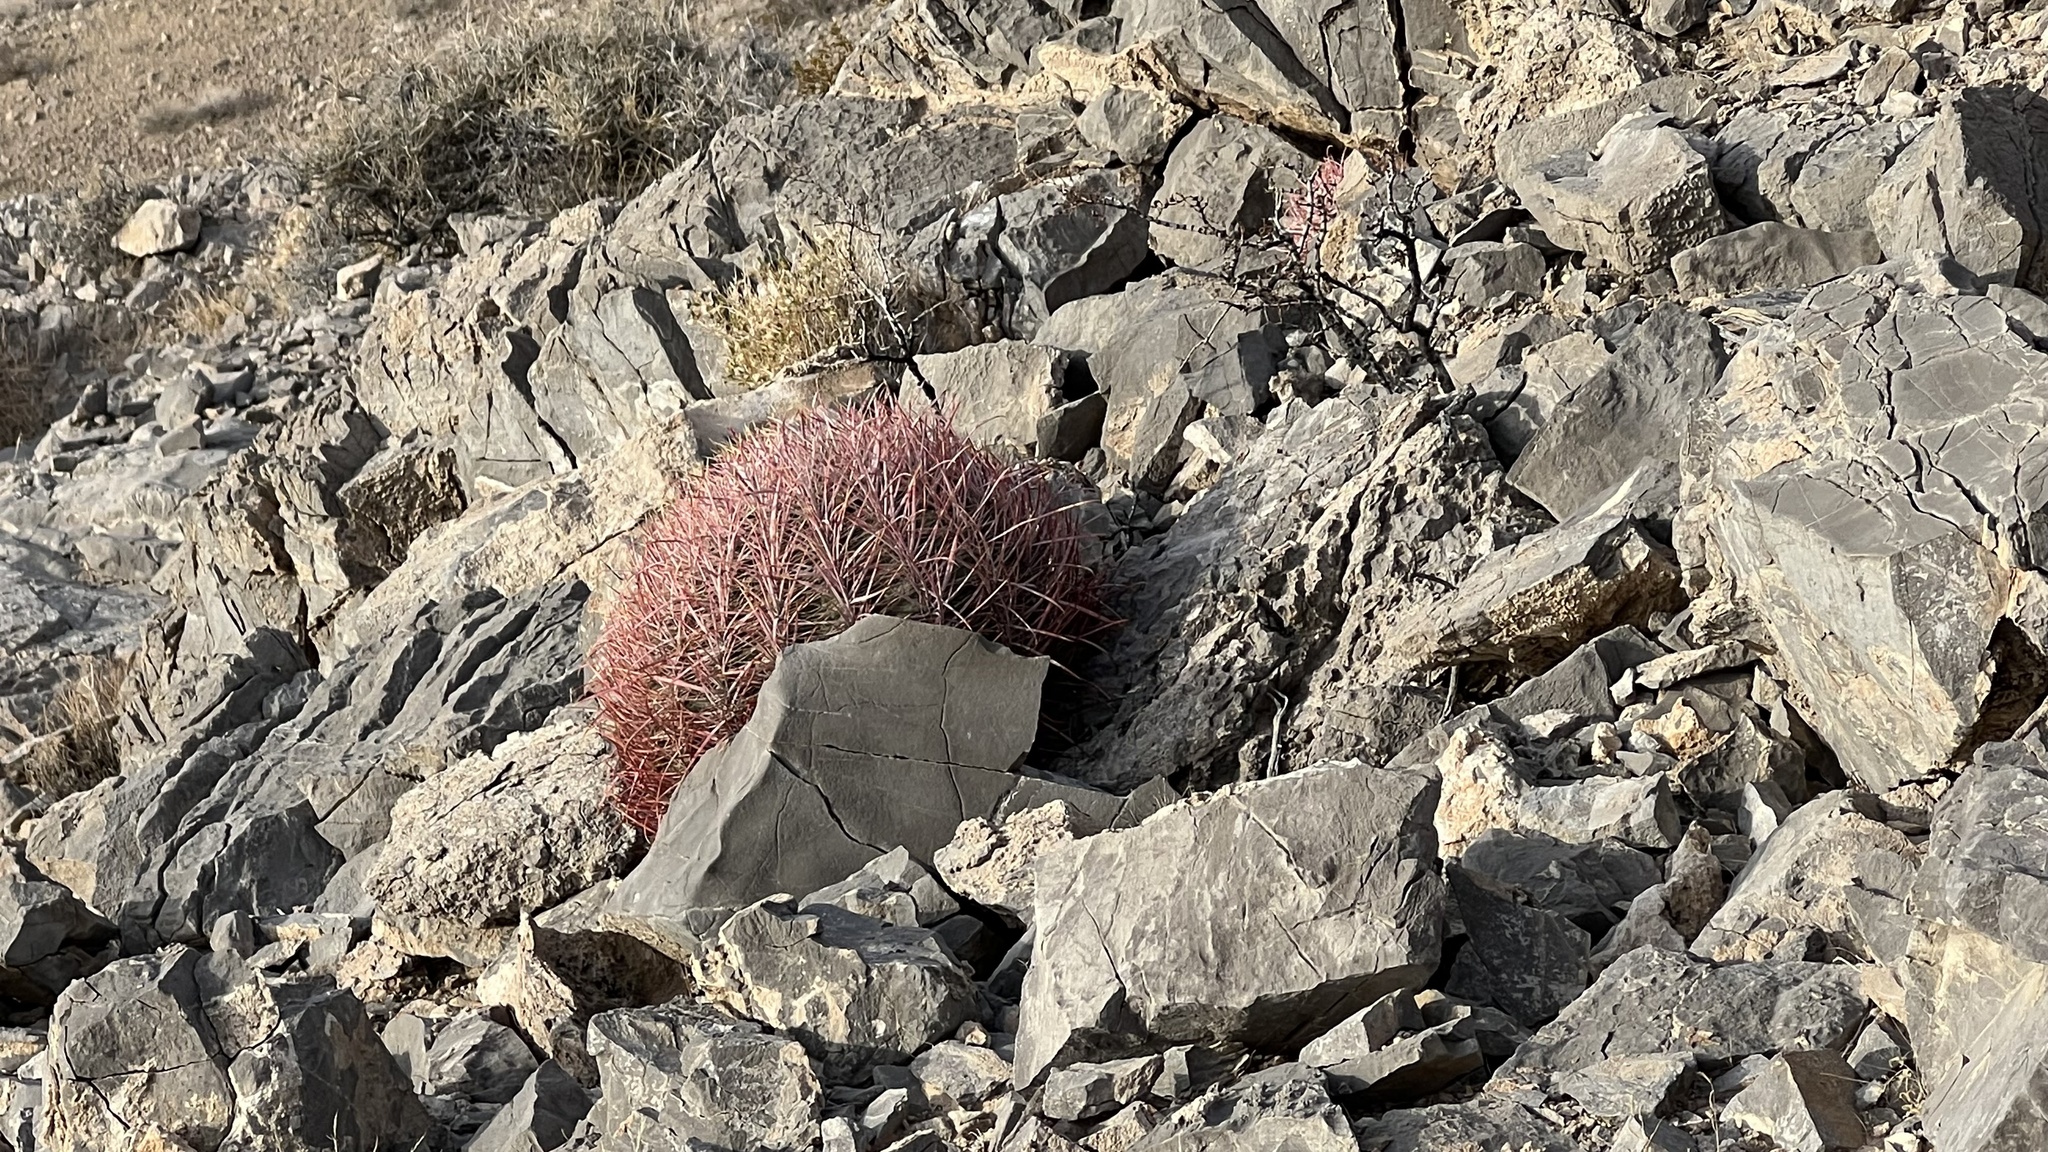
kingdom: Plantae
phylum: Tracheophyta
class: Magnoliopsida
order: Caryophyllales
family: Cactaceae
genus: Ferocactus
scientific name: Ferocactus cylindraceus
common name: California barrel cactus
